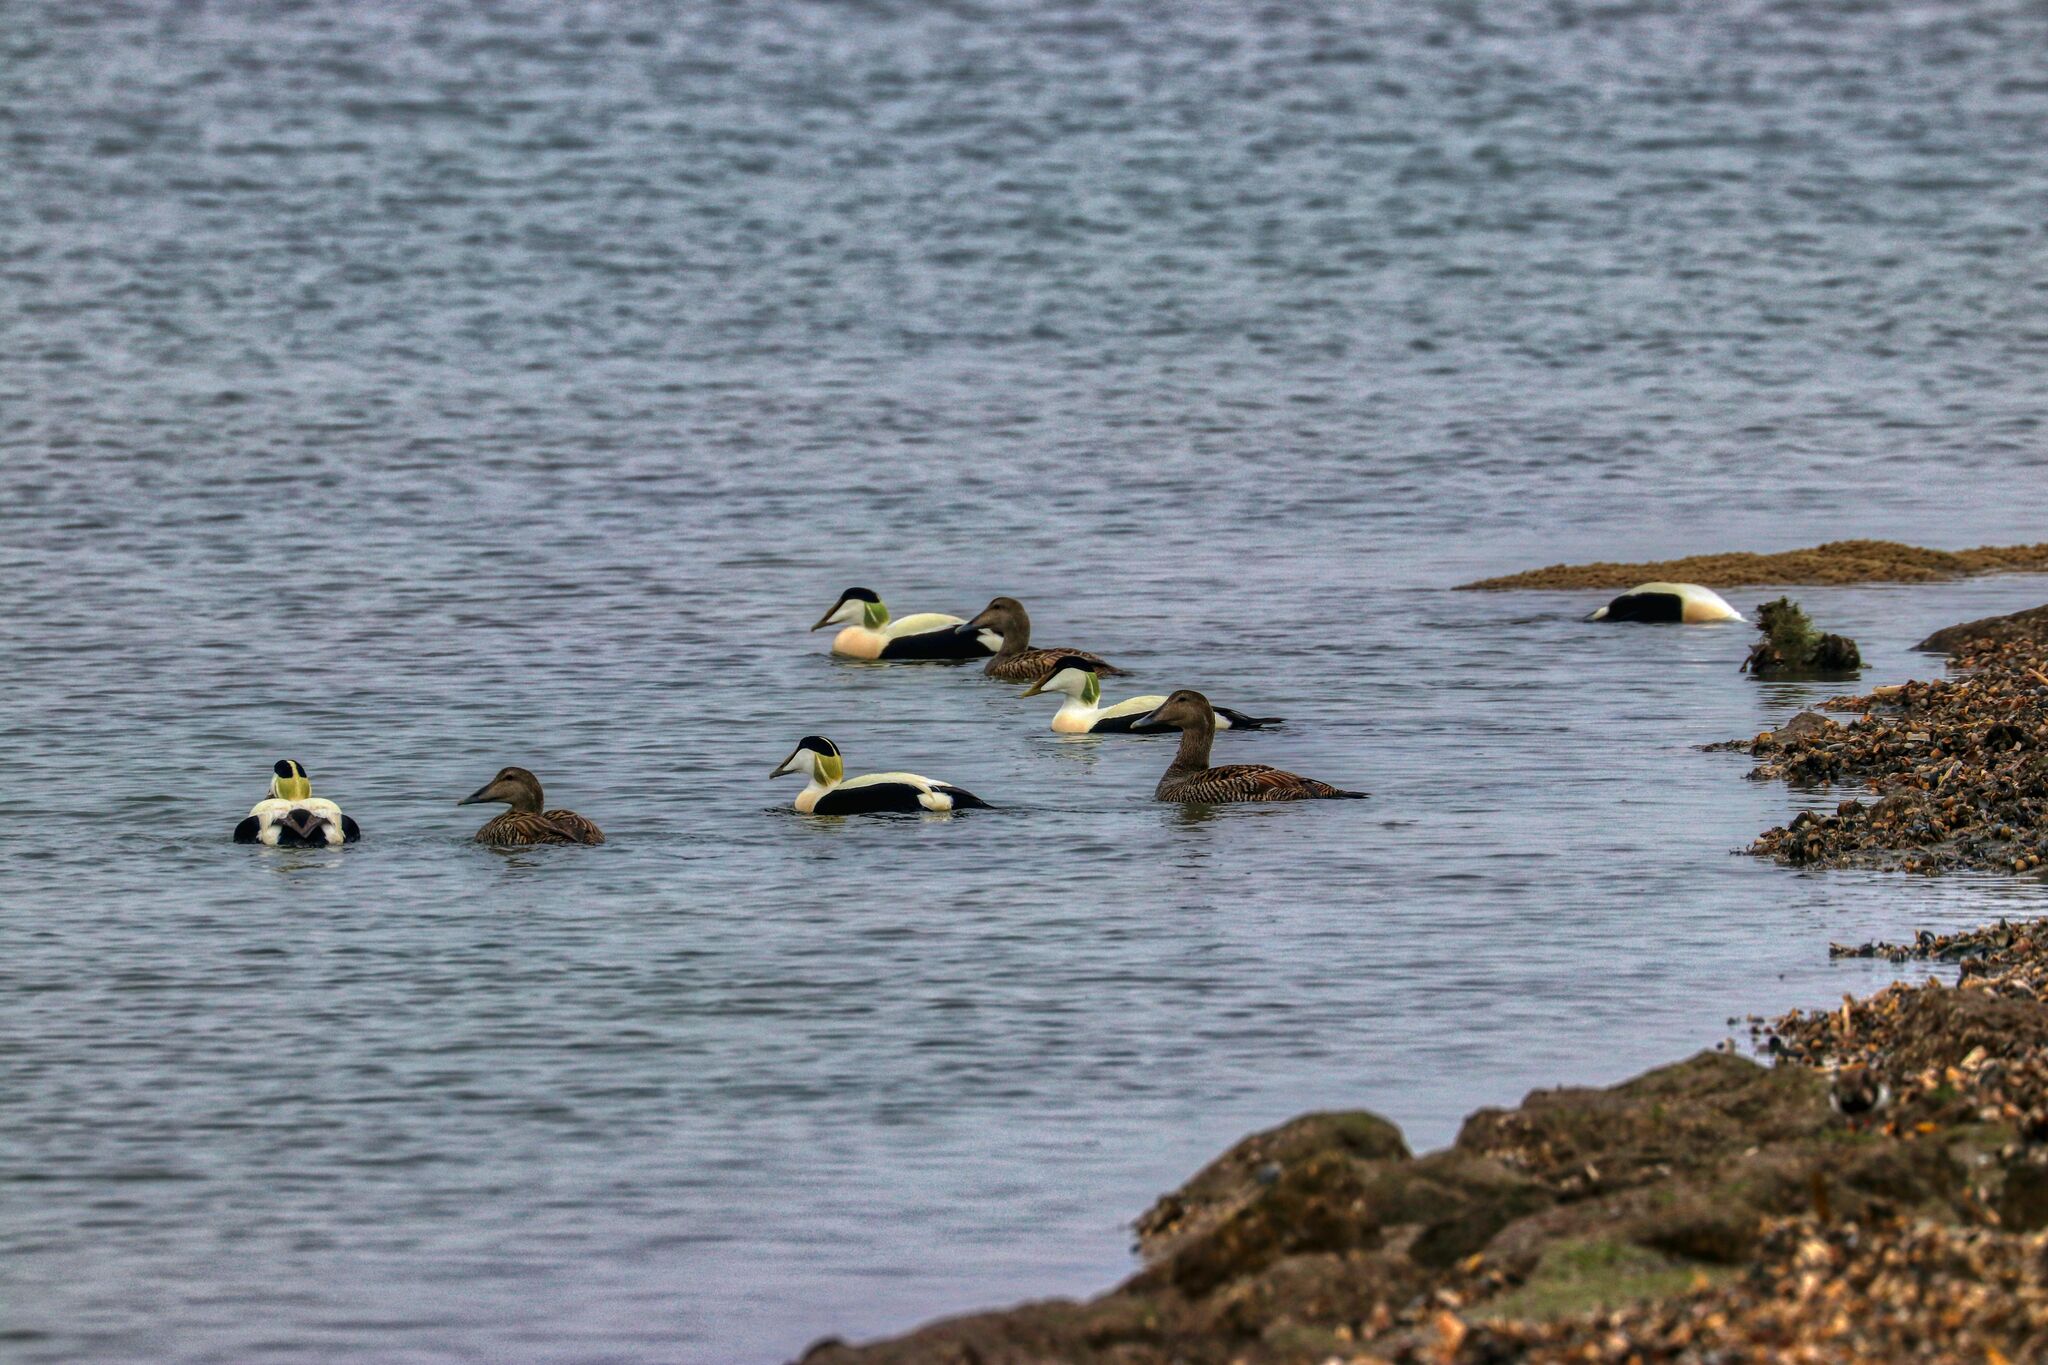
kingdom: Animalia
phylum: Chordata
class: Aves
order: Anseriformes
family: Anatidae
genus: Somateria
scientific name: Somateria mollissima
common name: Common eider
